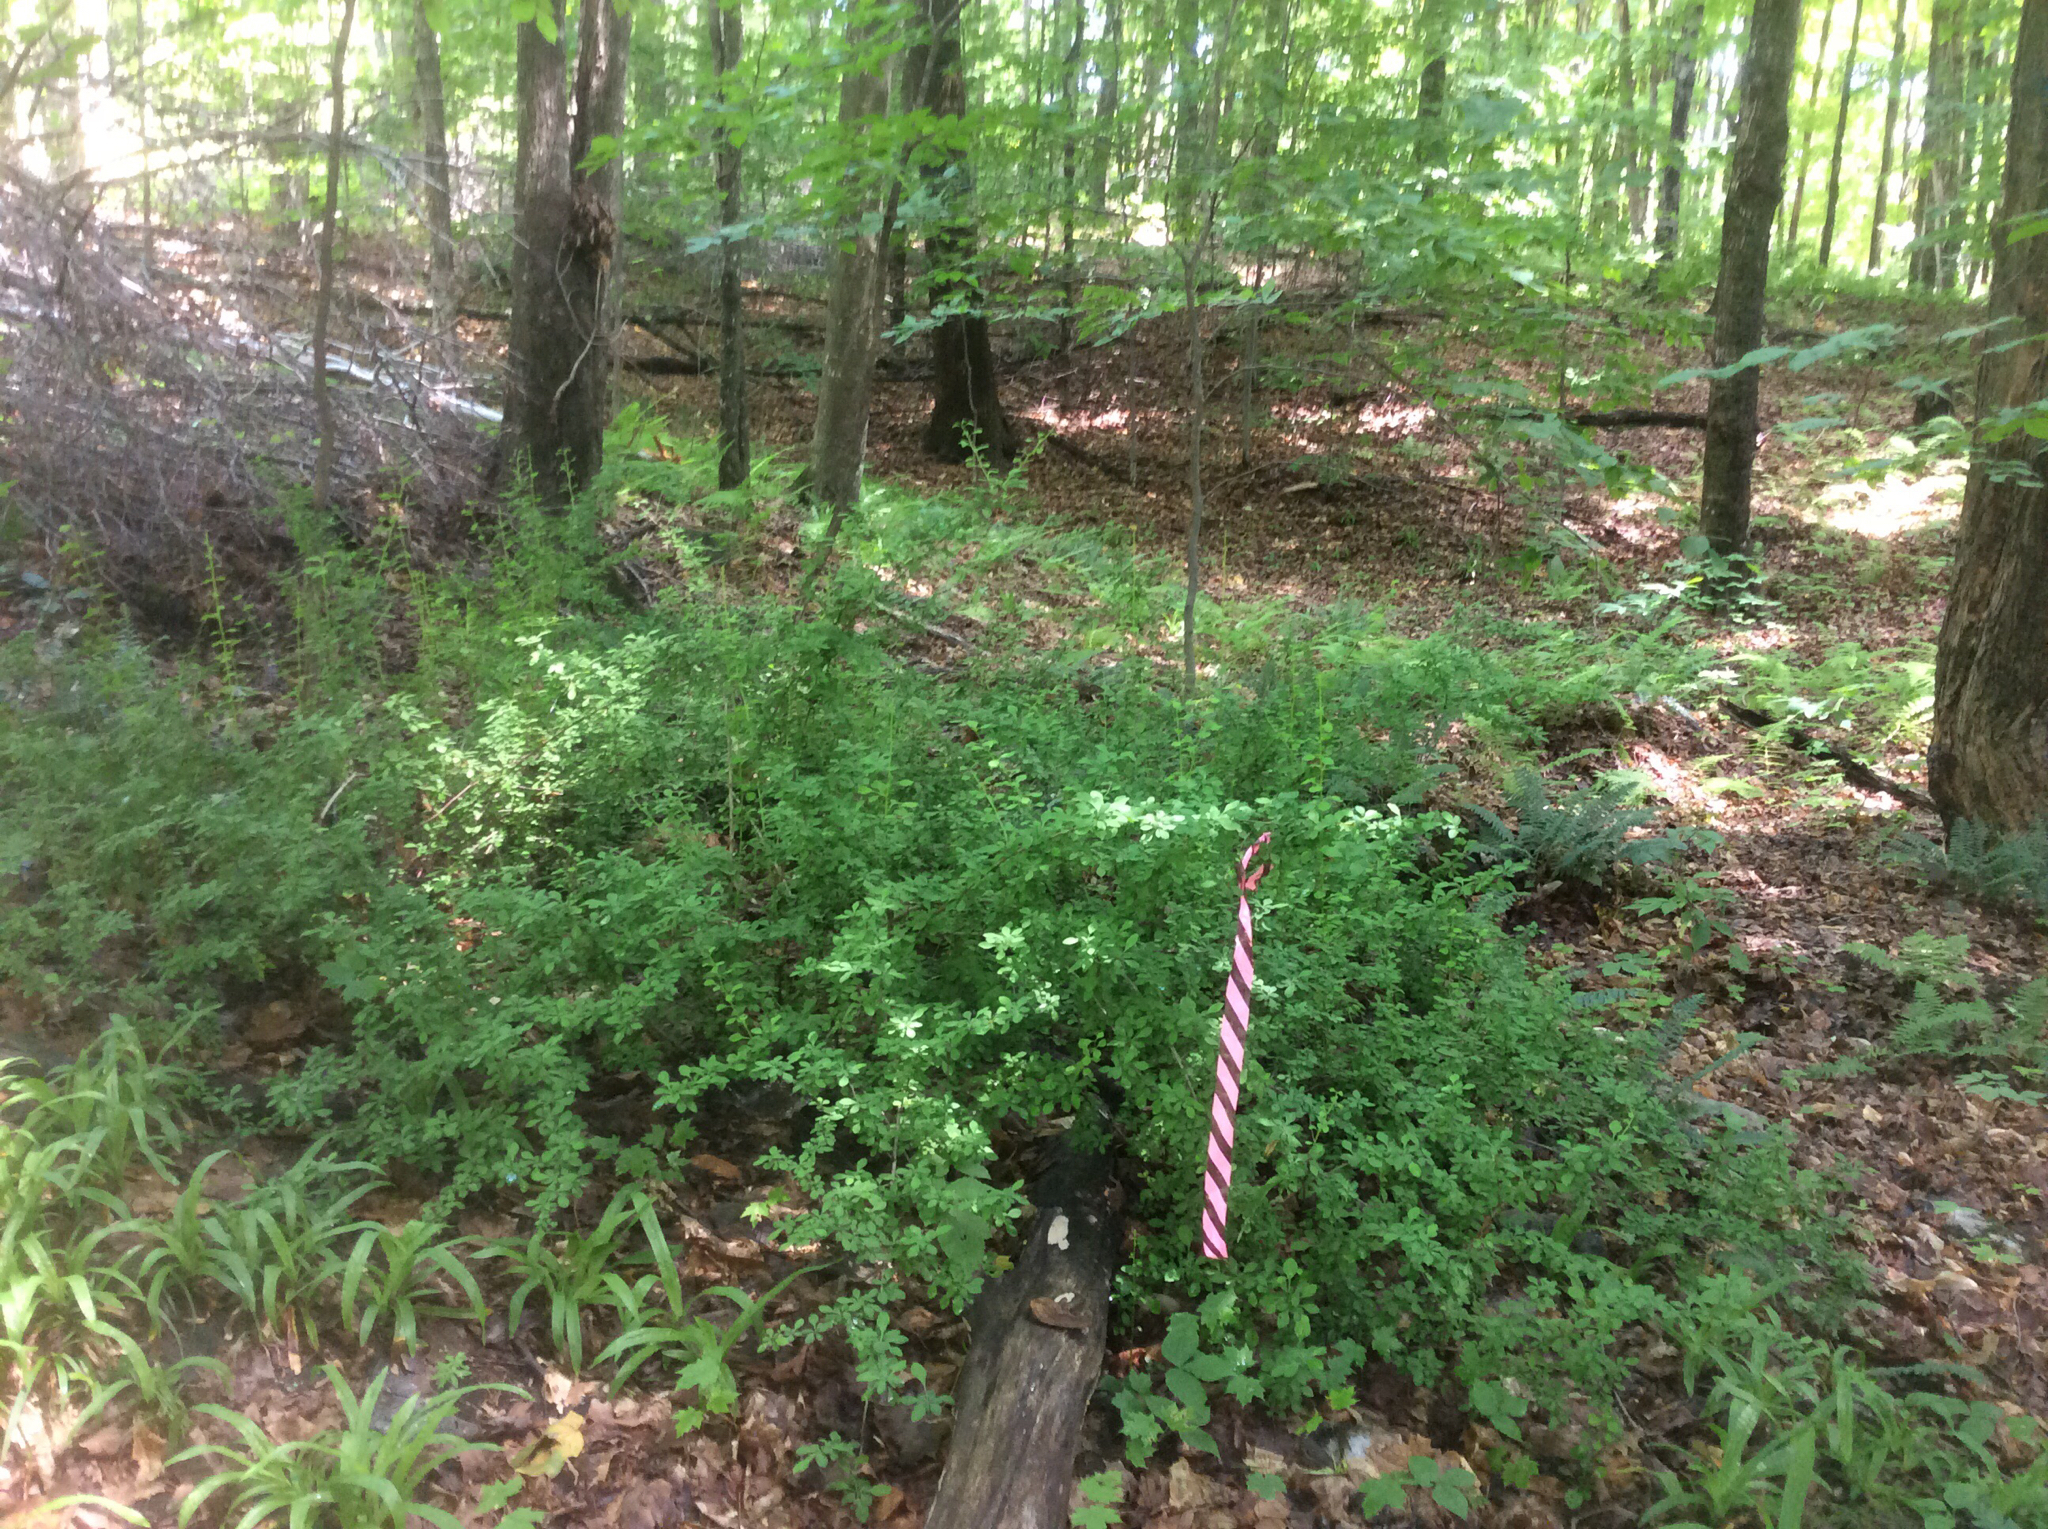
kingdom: Plantae
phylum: Tracheophyta
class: Magnoliopsida
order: Ranunculales
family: Berberidaceae
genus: Berberis
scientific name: Berberis thunbergii
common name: Japanese barberry
